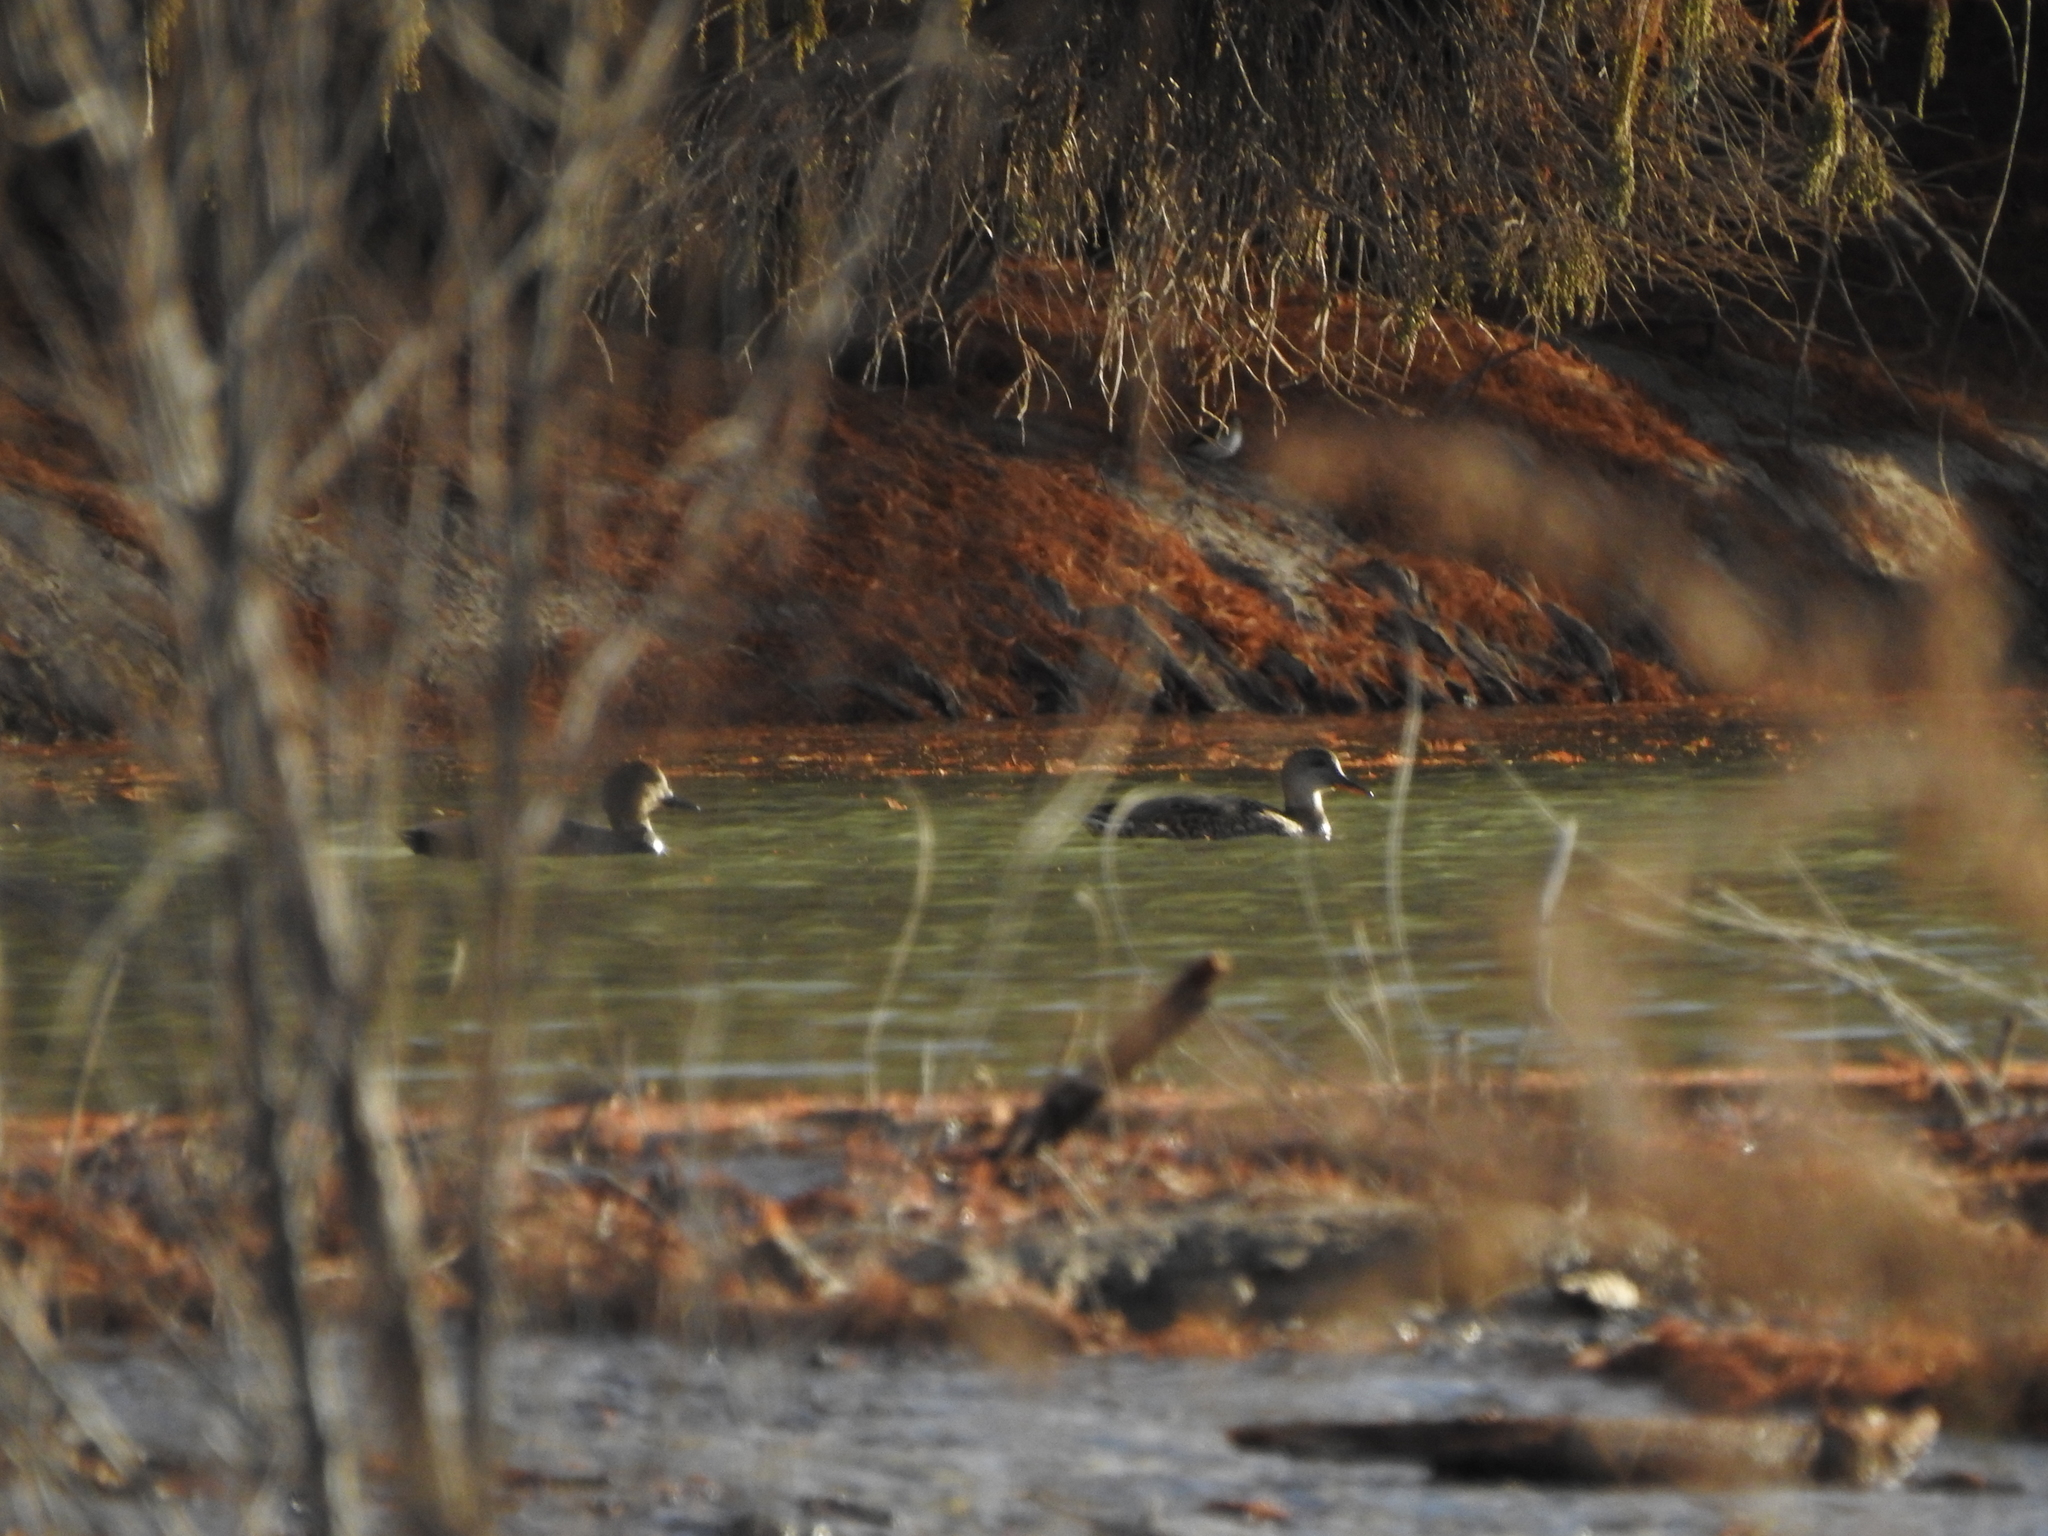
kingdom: Animalia
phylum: Chordata
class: Aves
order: Anseriformes
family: Anatidae
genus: Mareca
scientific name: Mareca strepera
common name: Gadwall
